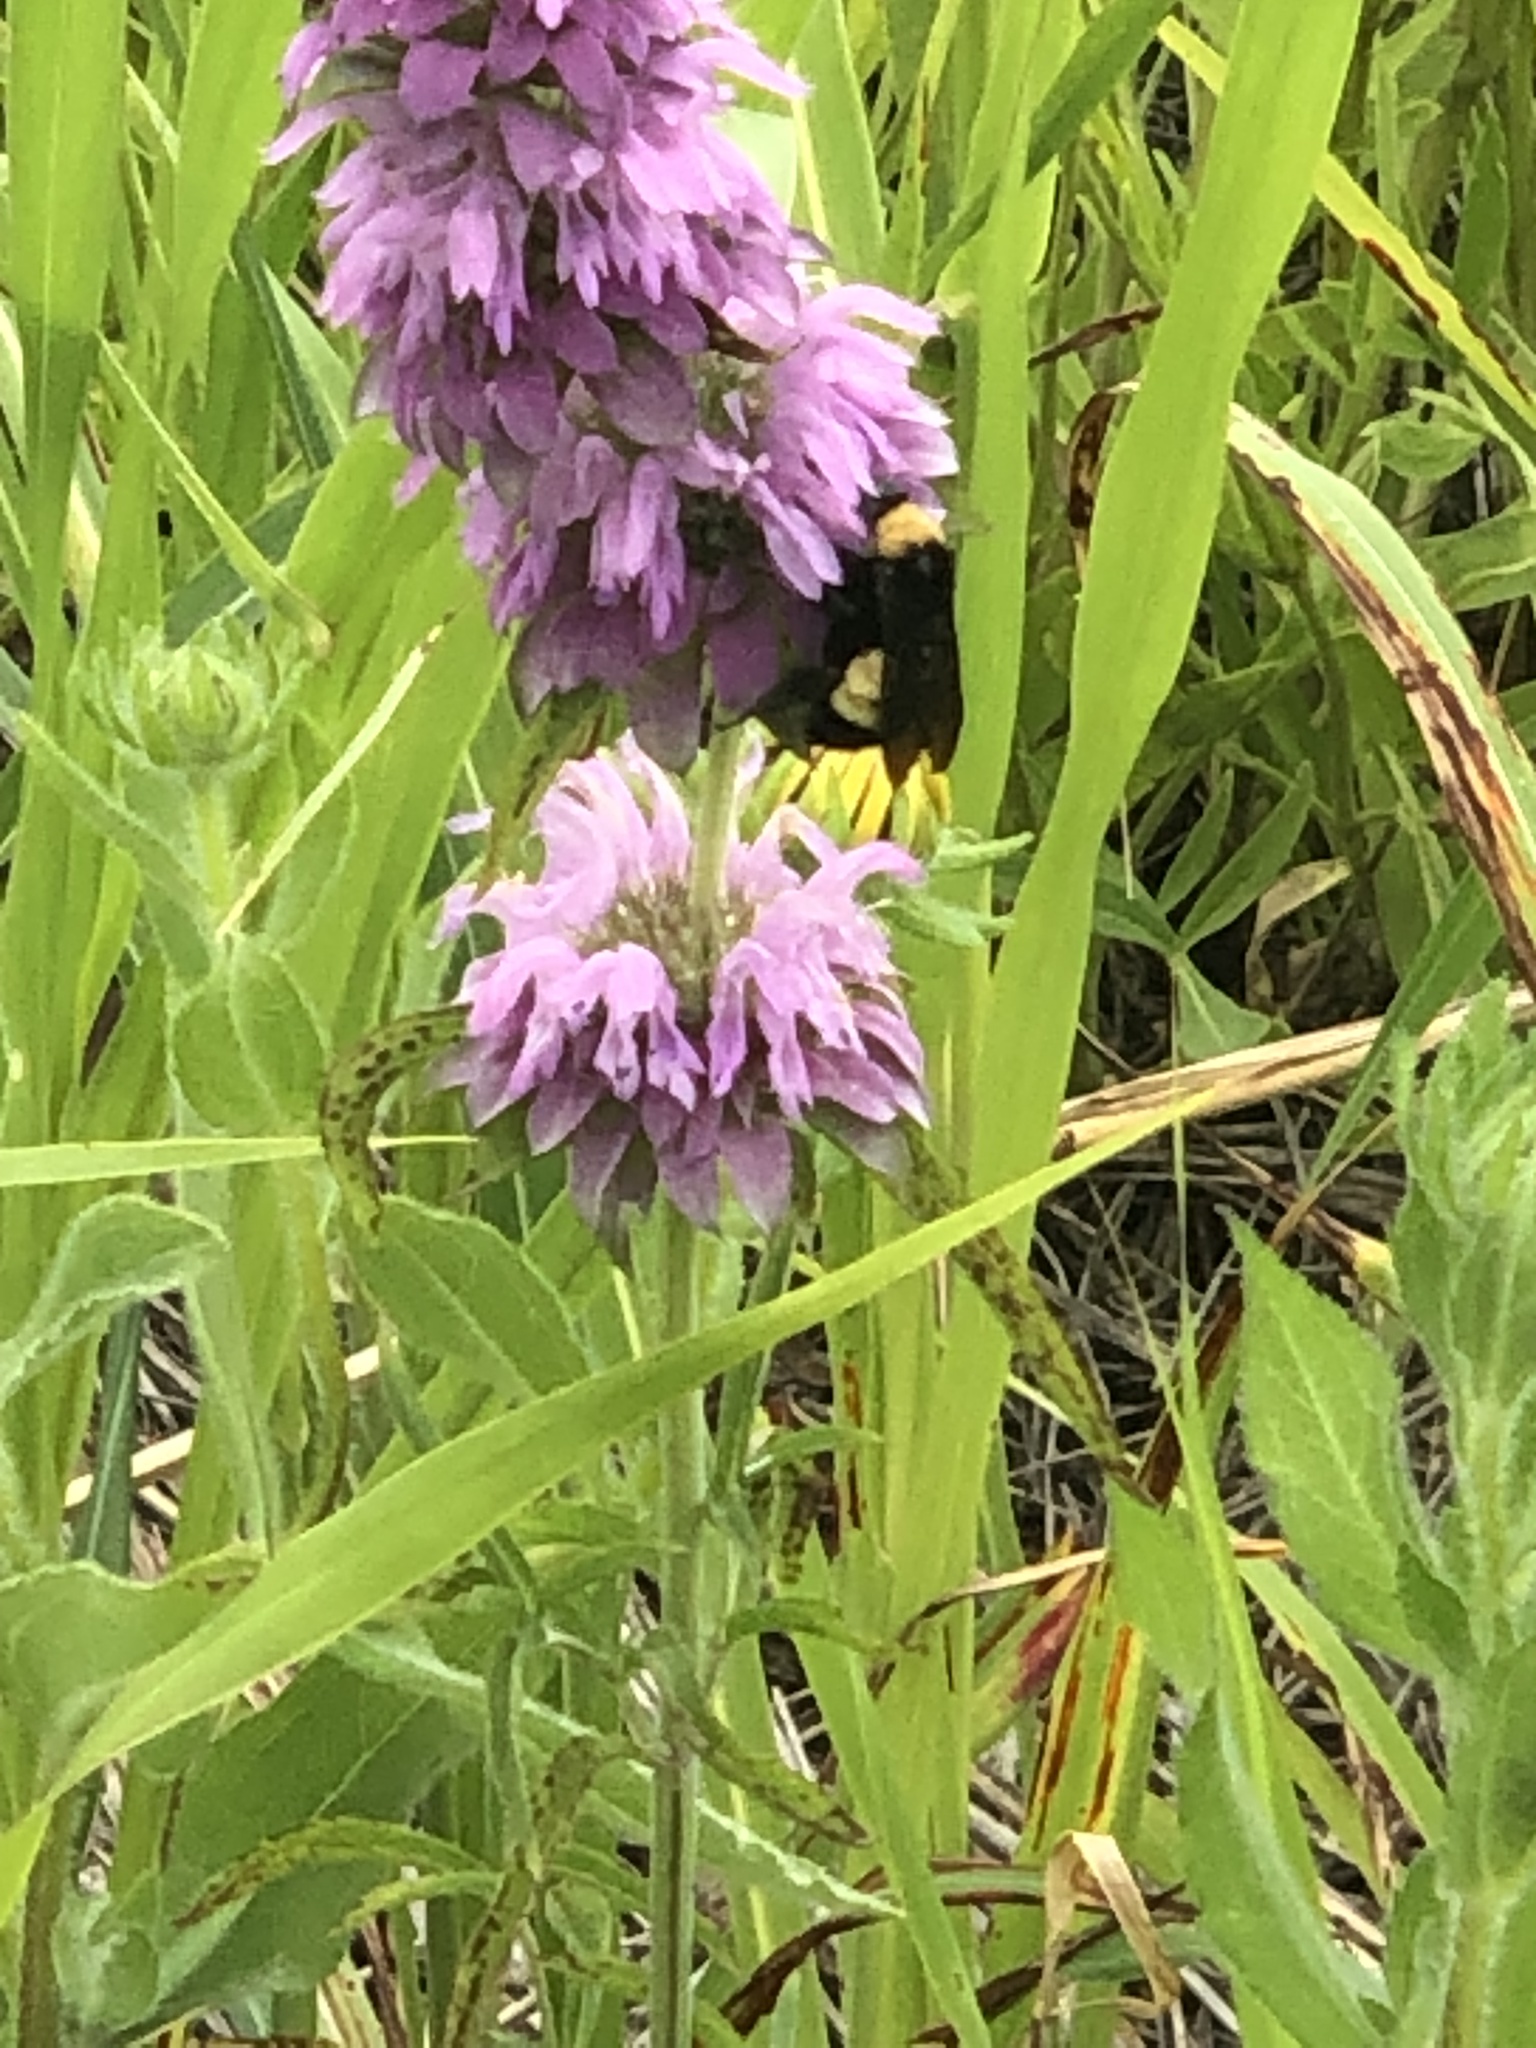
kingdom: Animalia
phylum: Arthropoda
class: Insecta
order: Hymenoptera
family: Apidae
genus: Bombus
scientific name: Bombus pensylvanicus
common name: Bumble bee
